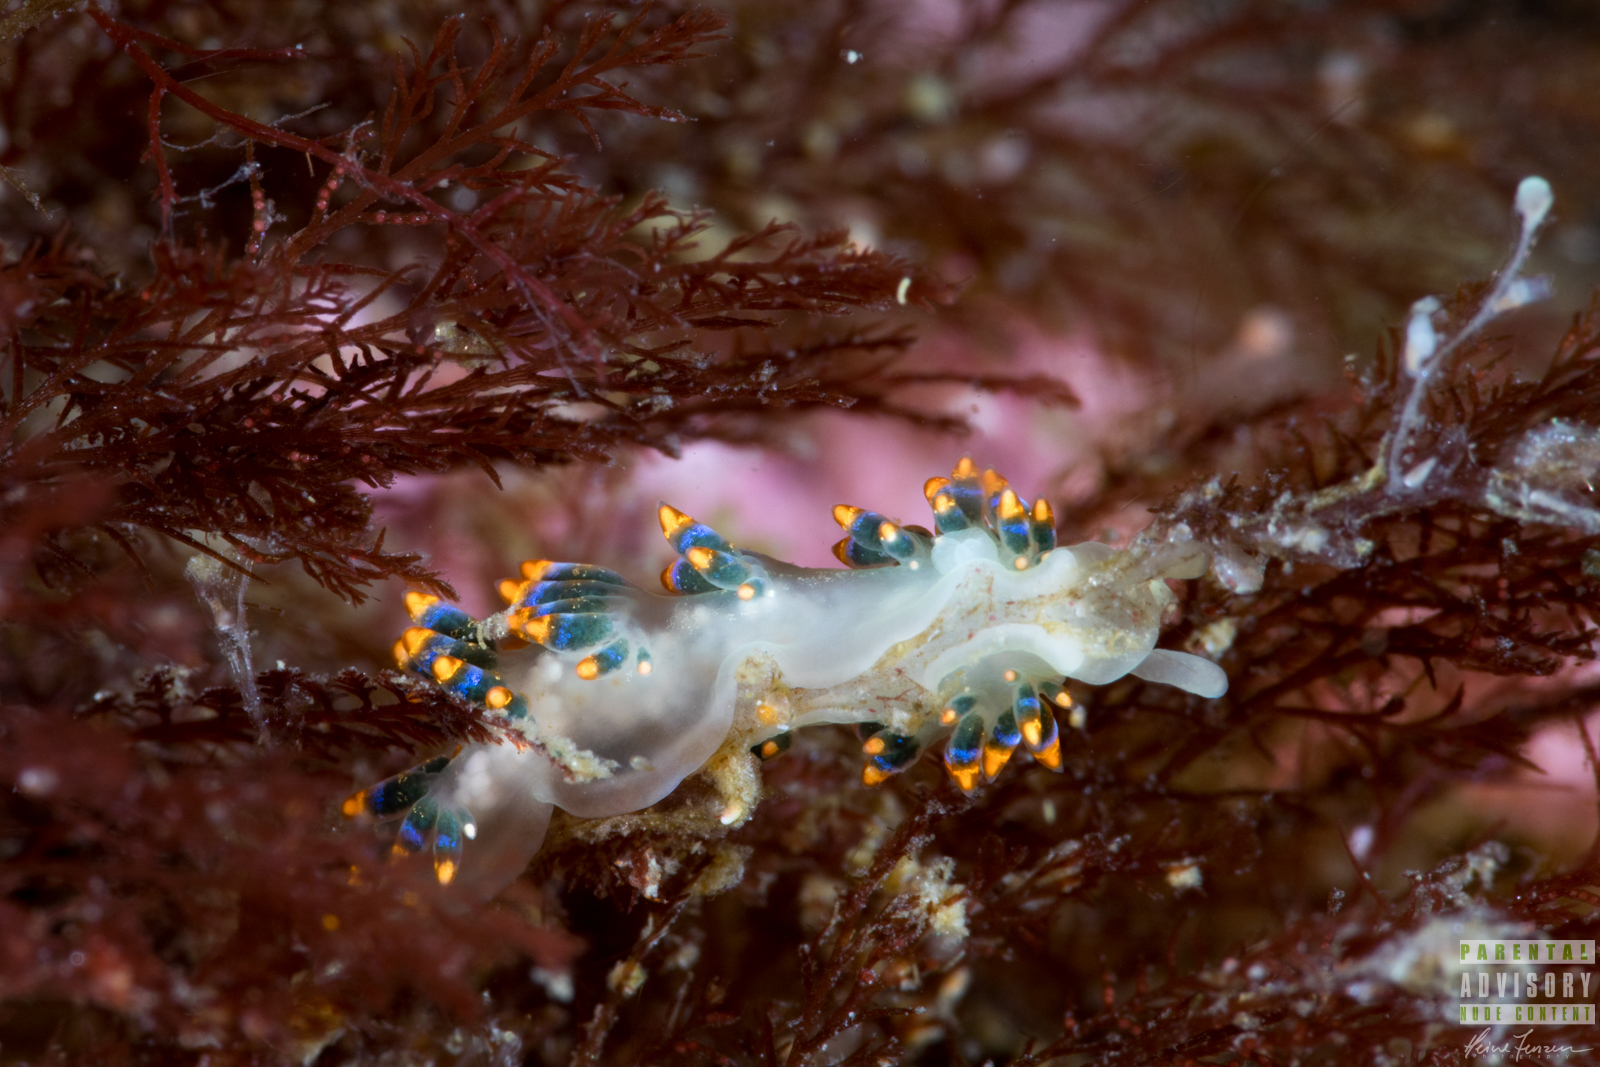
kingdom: Animalia
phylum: Mollusca
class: Gastropoda
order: Nudibranchia
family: Trinchesiidae
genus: Trinchesia
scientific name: Trinchesia cuanensis
